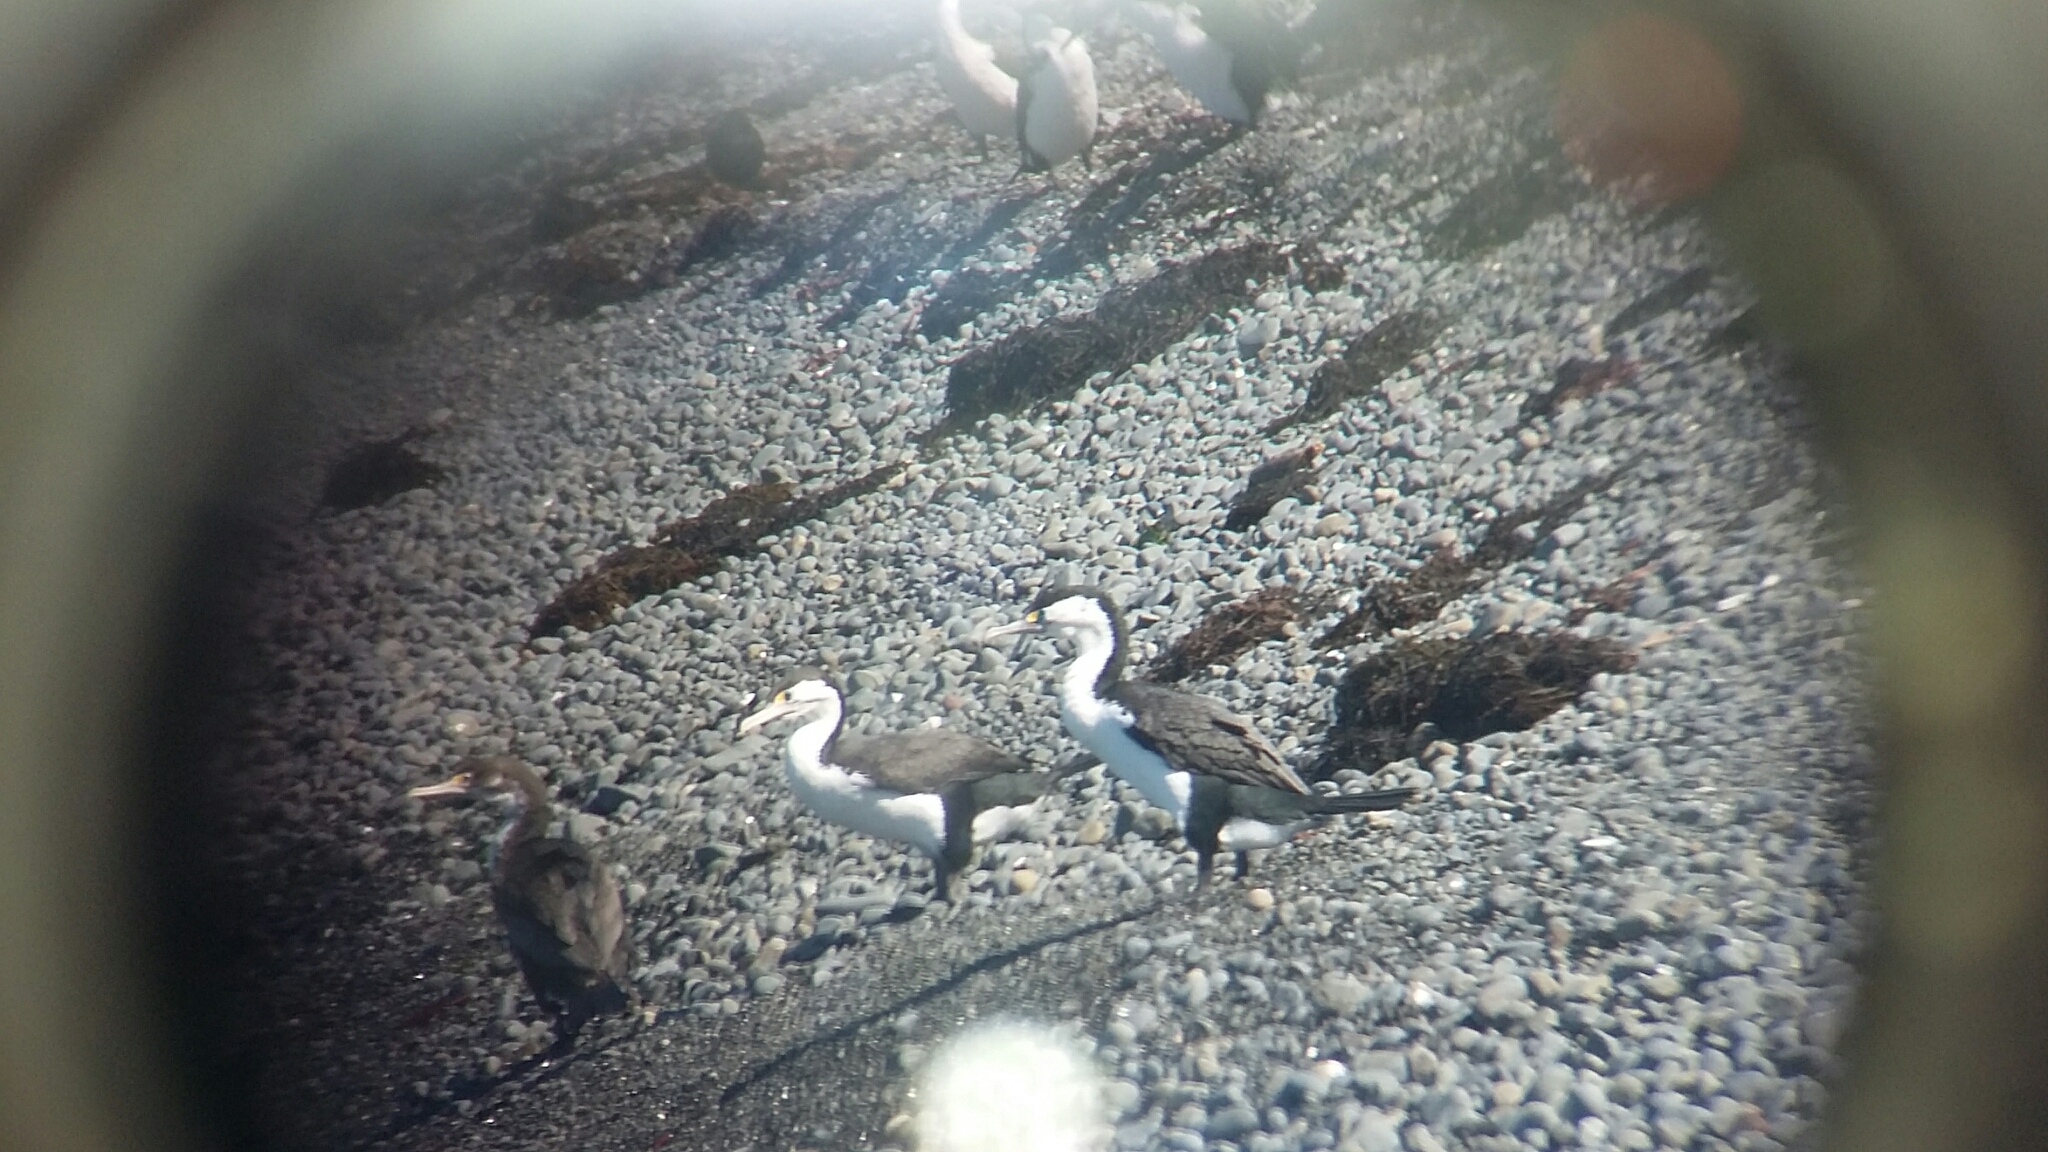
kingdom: Animalia
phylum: Chordata
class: Aves
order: Suliformes
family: Phalacrocoracidae
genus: Phalacrocorax
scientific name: Phalacrocorax varius
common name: Pied cormorant
